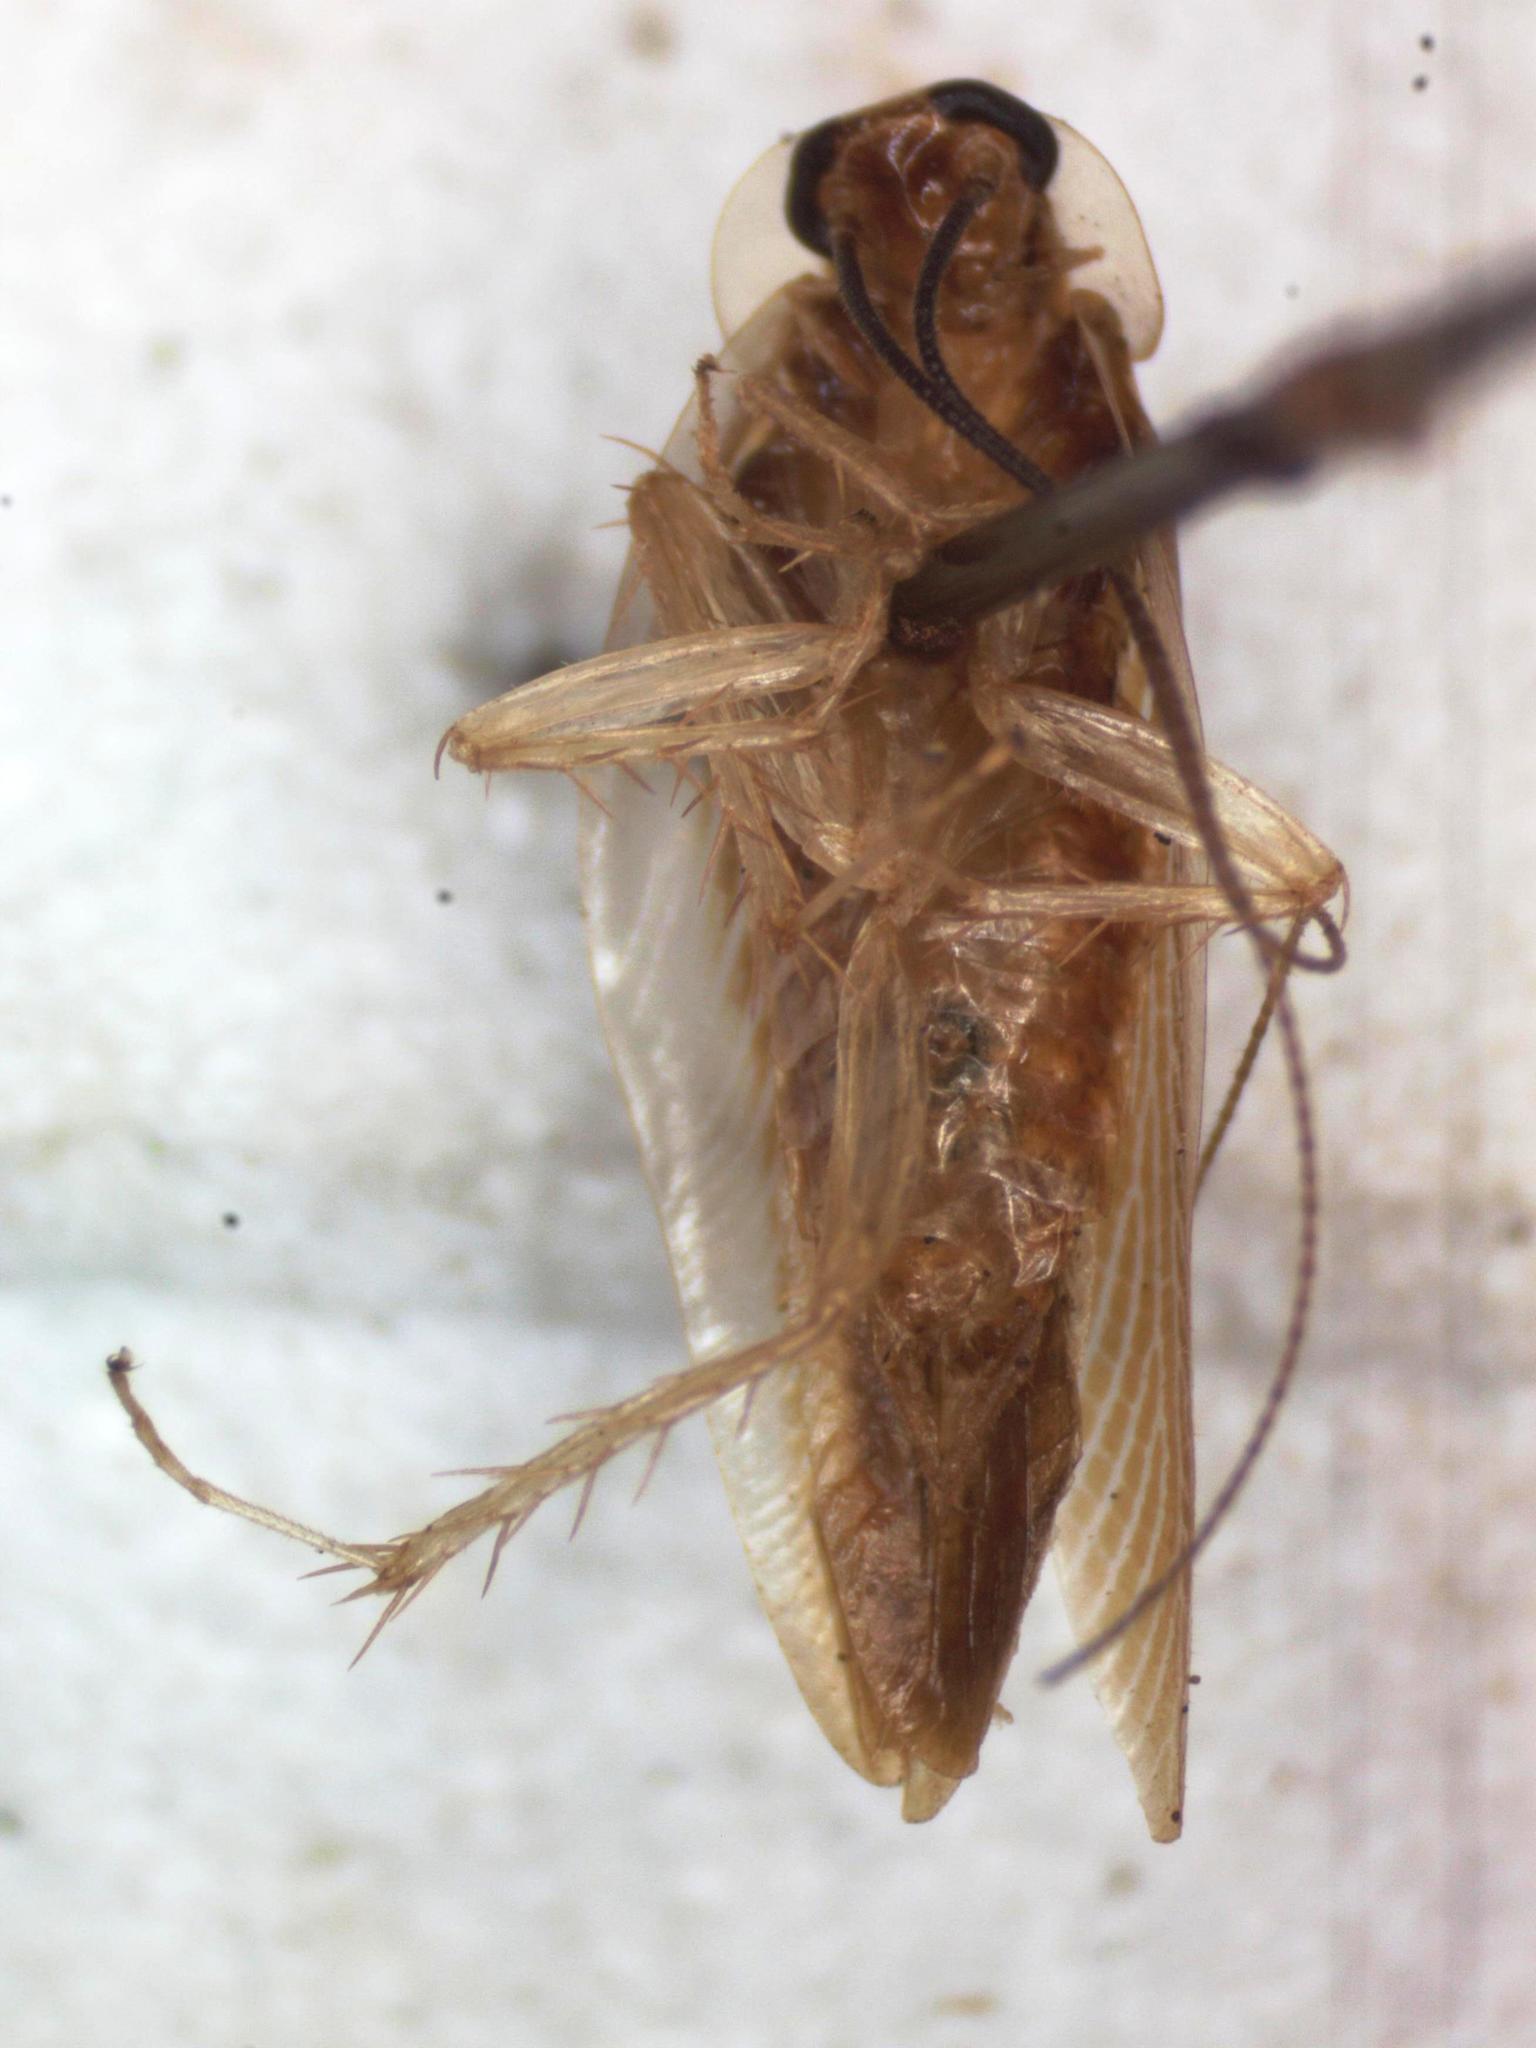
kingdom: Animalia
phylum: Arthropoda
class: Insecta
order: Blattodea
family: Ectobiidae
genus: Chorisoneura
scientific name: Chorisoneura parishi
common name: Cockroach
